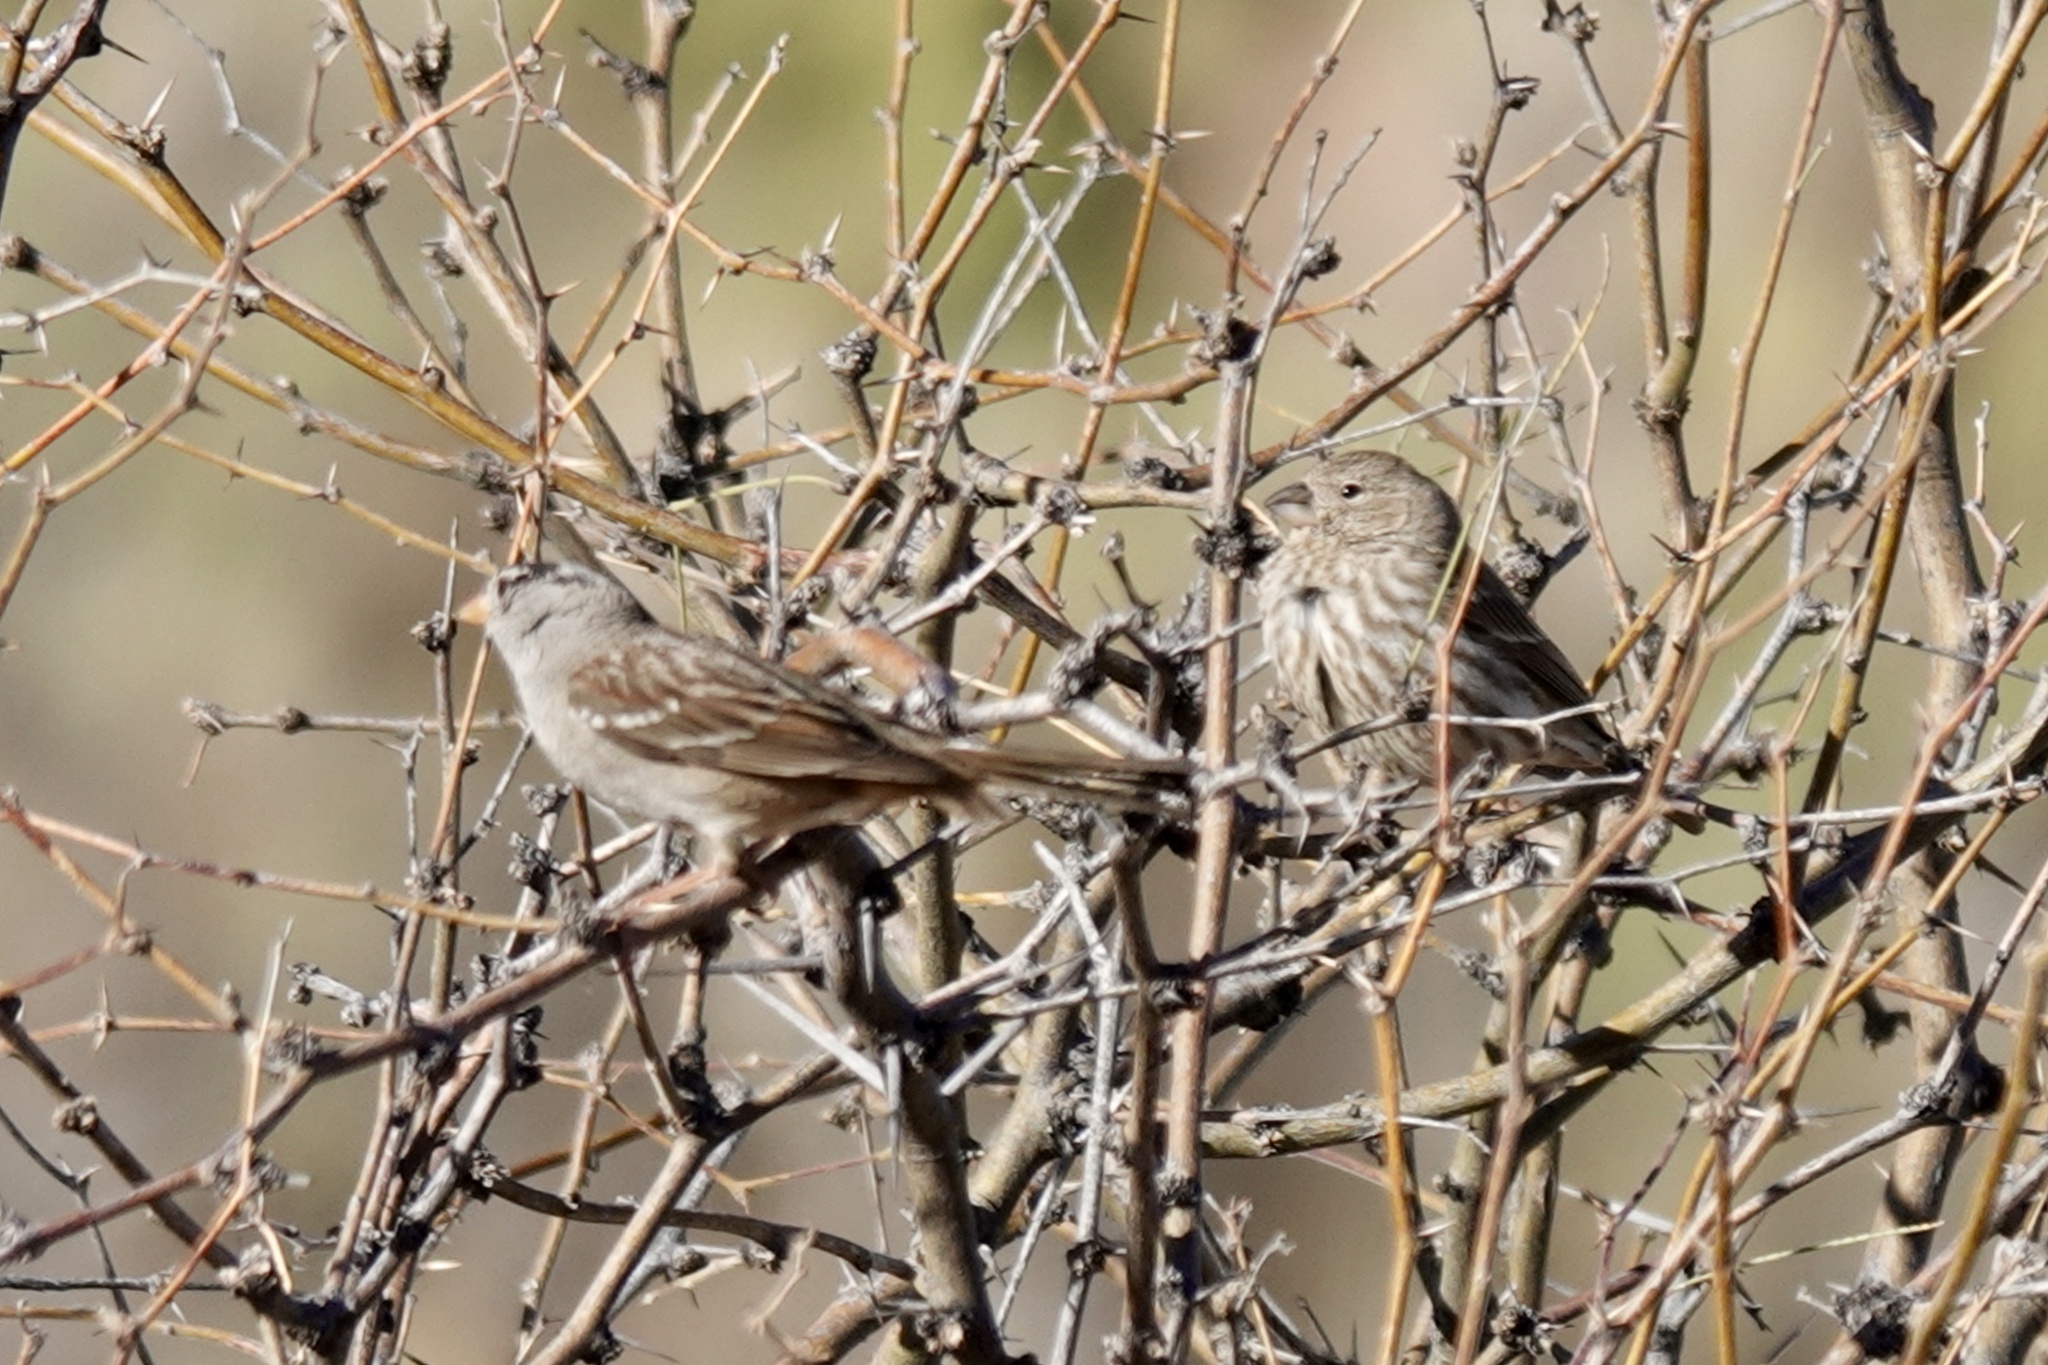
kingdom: Animalia
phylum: Chordata
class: Aves
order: Passeriformes
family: Fringillidae
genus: Haemorhous
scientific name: Haemorhous mexicanus
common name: House finch
